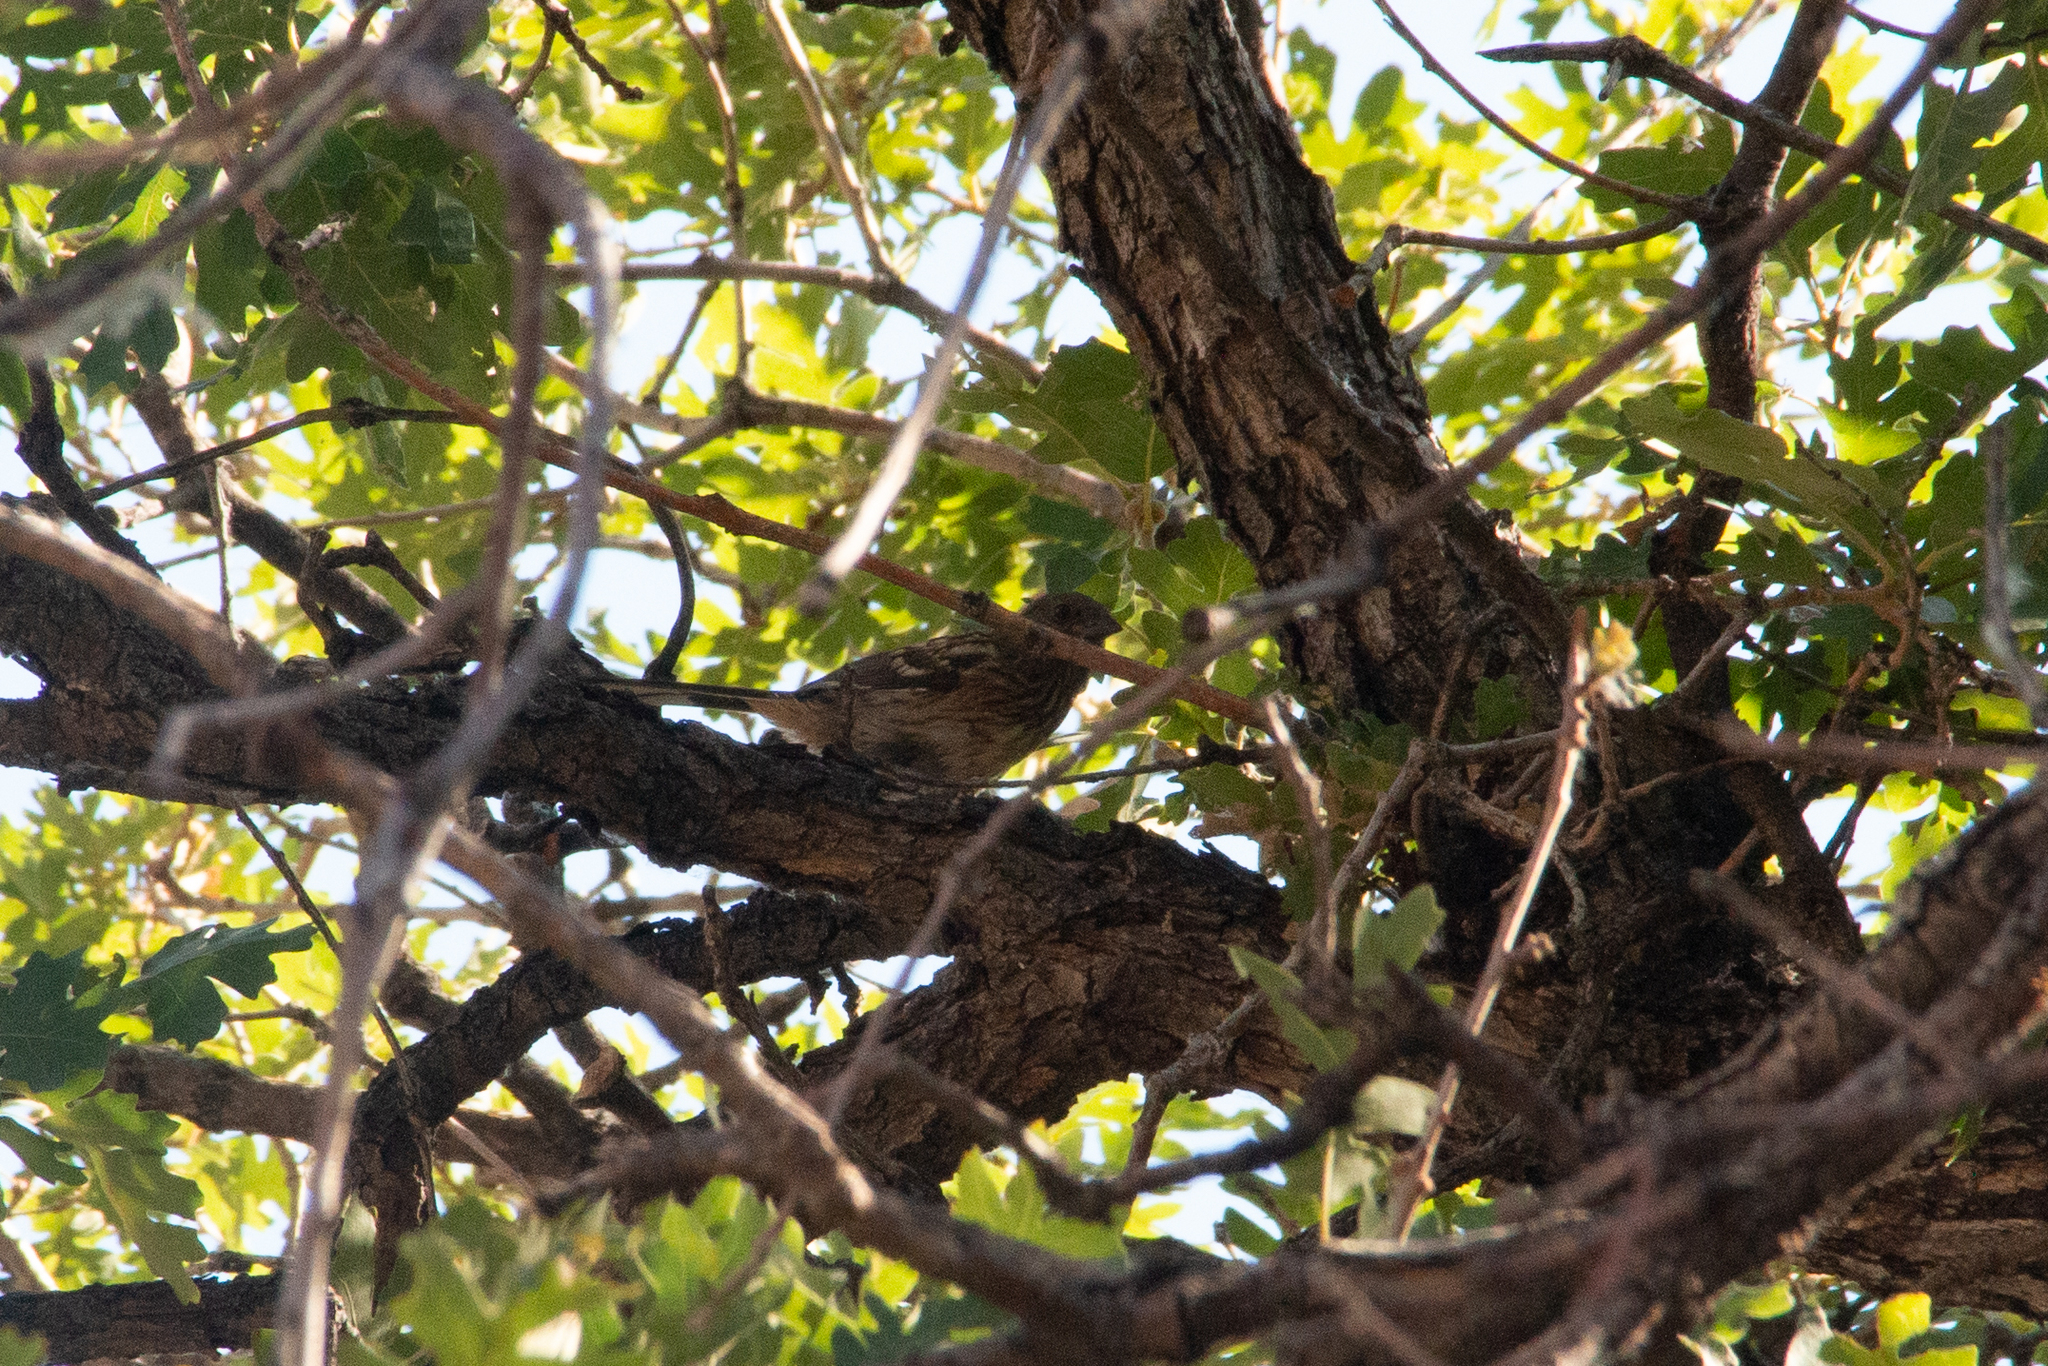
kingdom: Animalia
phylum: Chordata
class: Aves
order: Passeriformes
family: Passerellidae
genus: Pipilo
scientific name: Pipilo maculatus
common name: Spotted towhee
